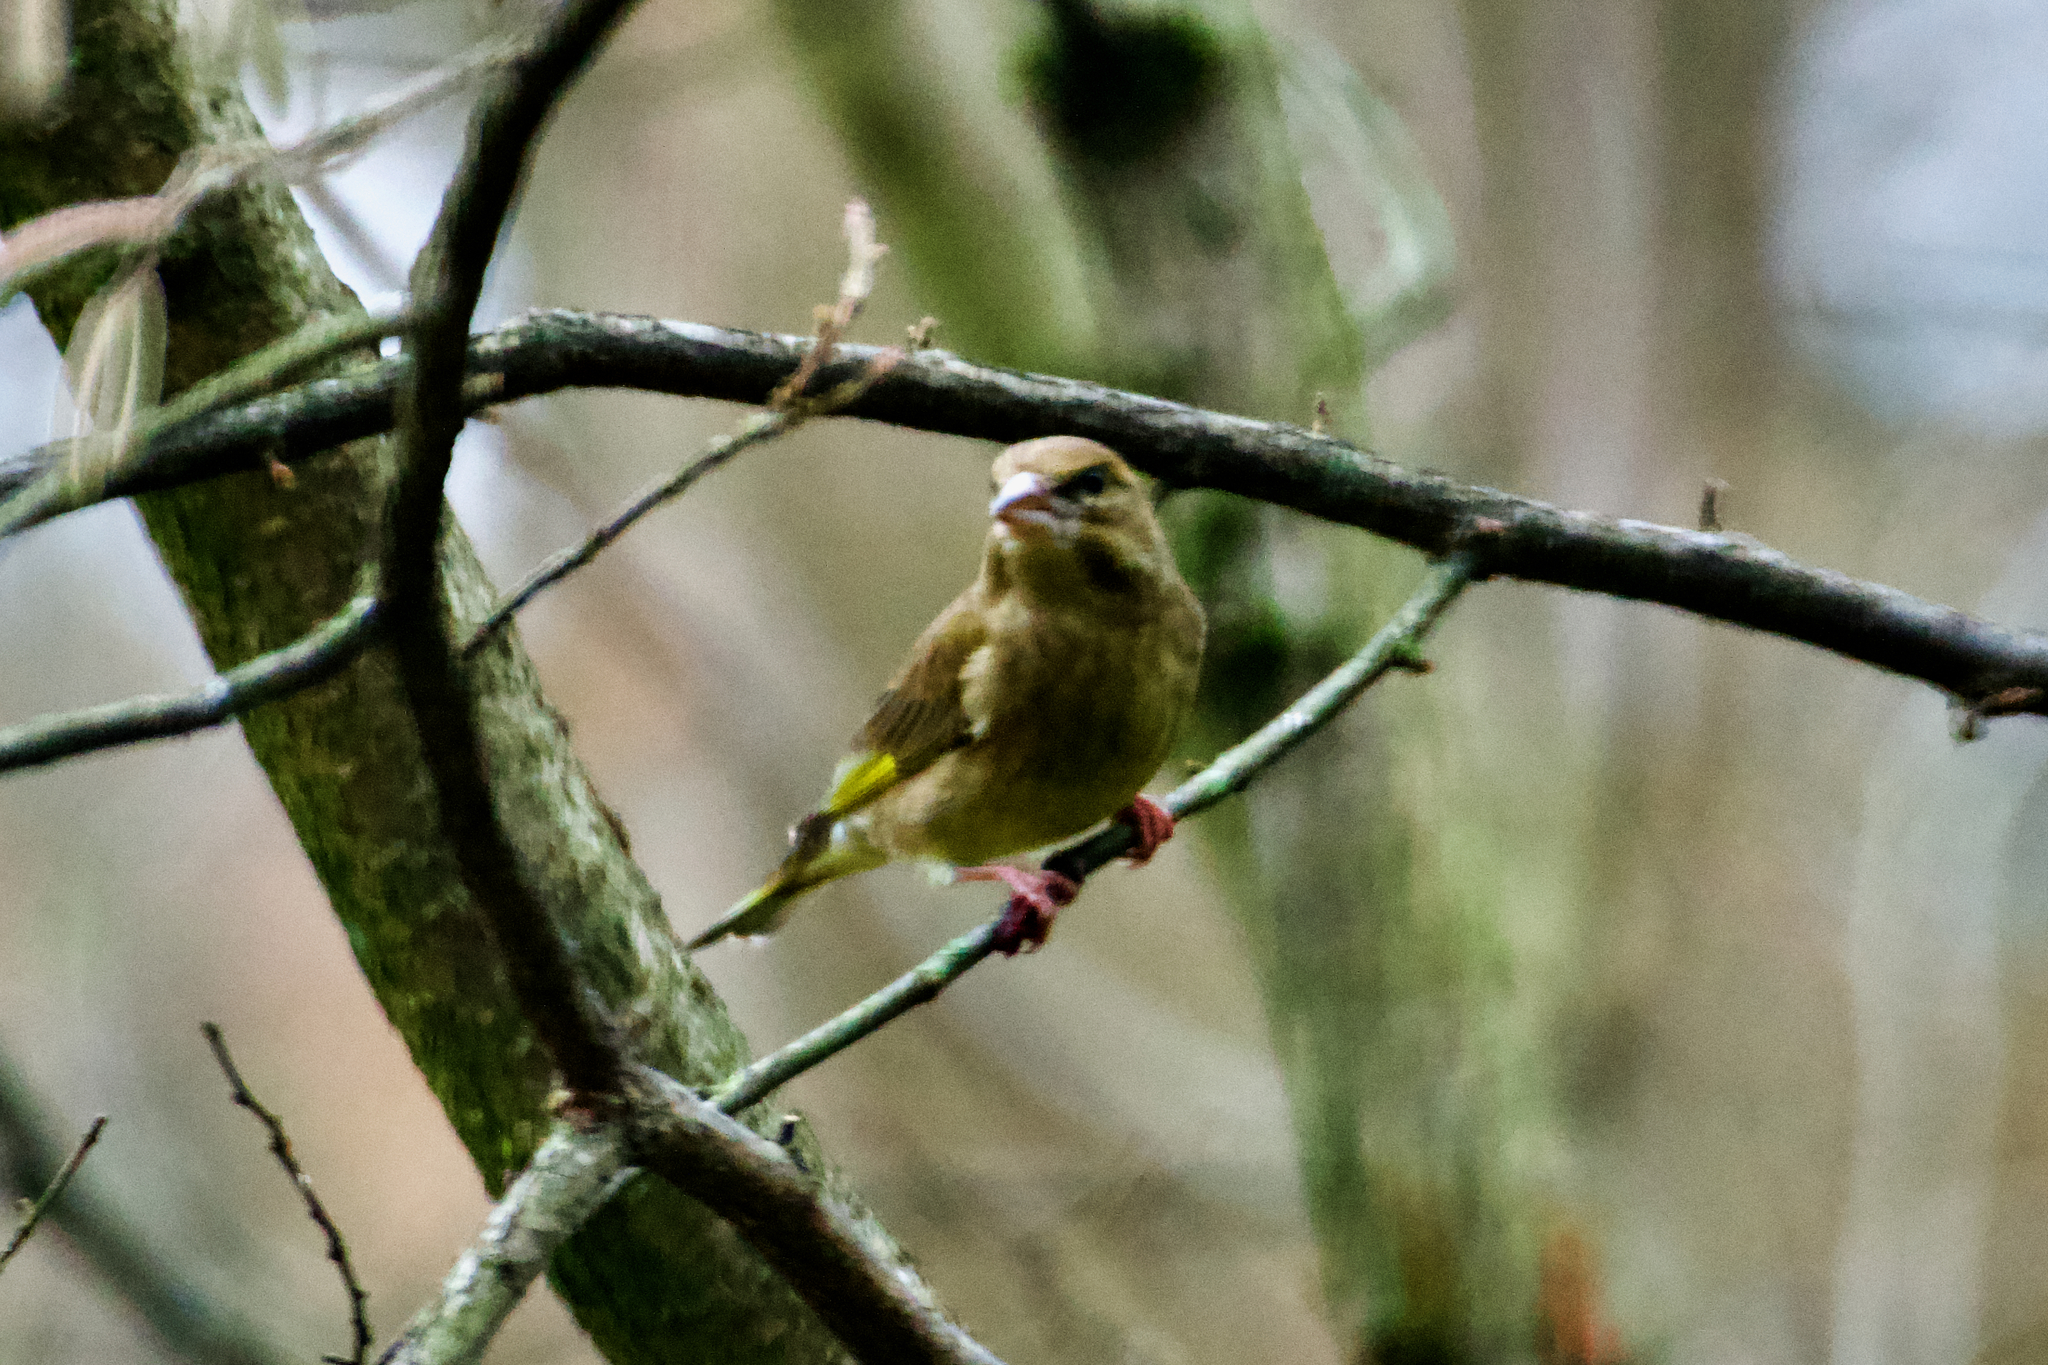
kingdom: Plantae
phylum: Tracheophyta
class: Liliopsida
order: Poales
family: Poaceae
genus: Chloris
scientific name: Chloris chloris
